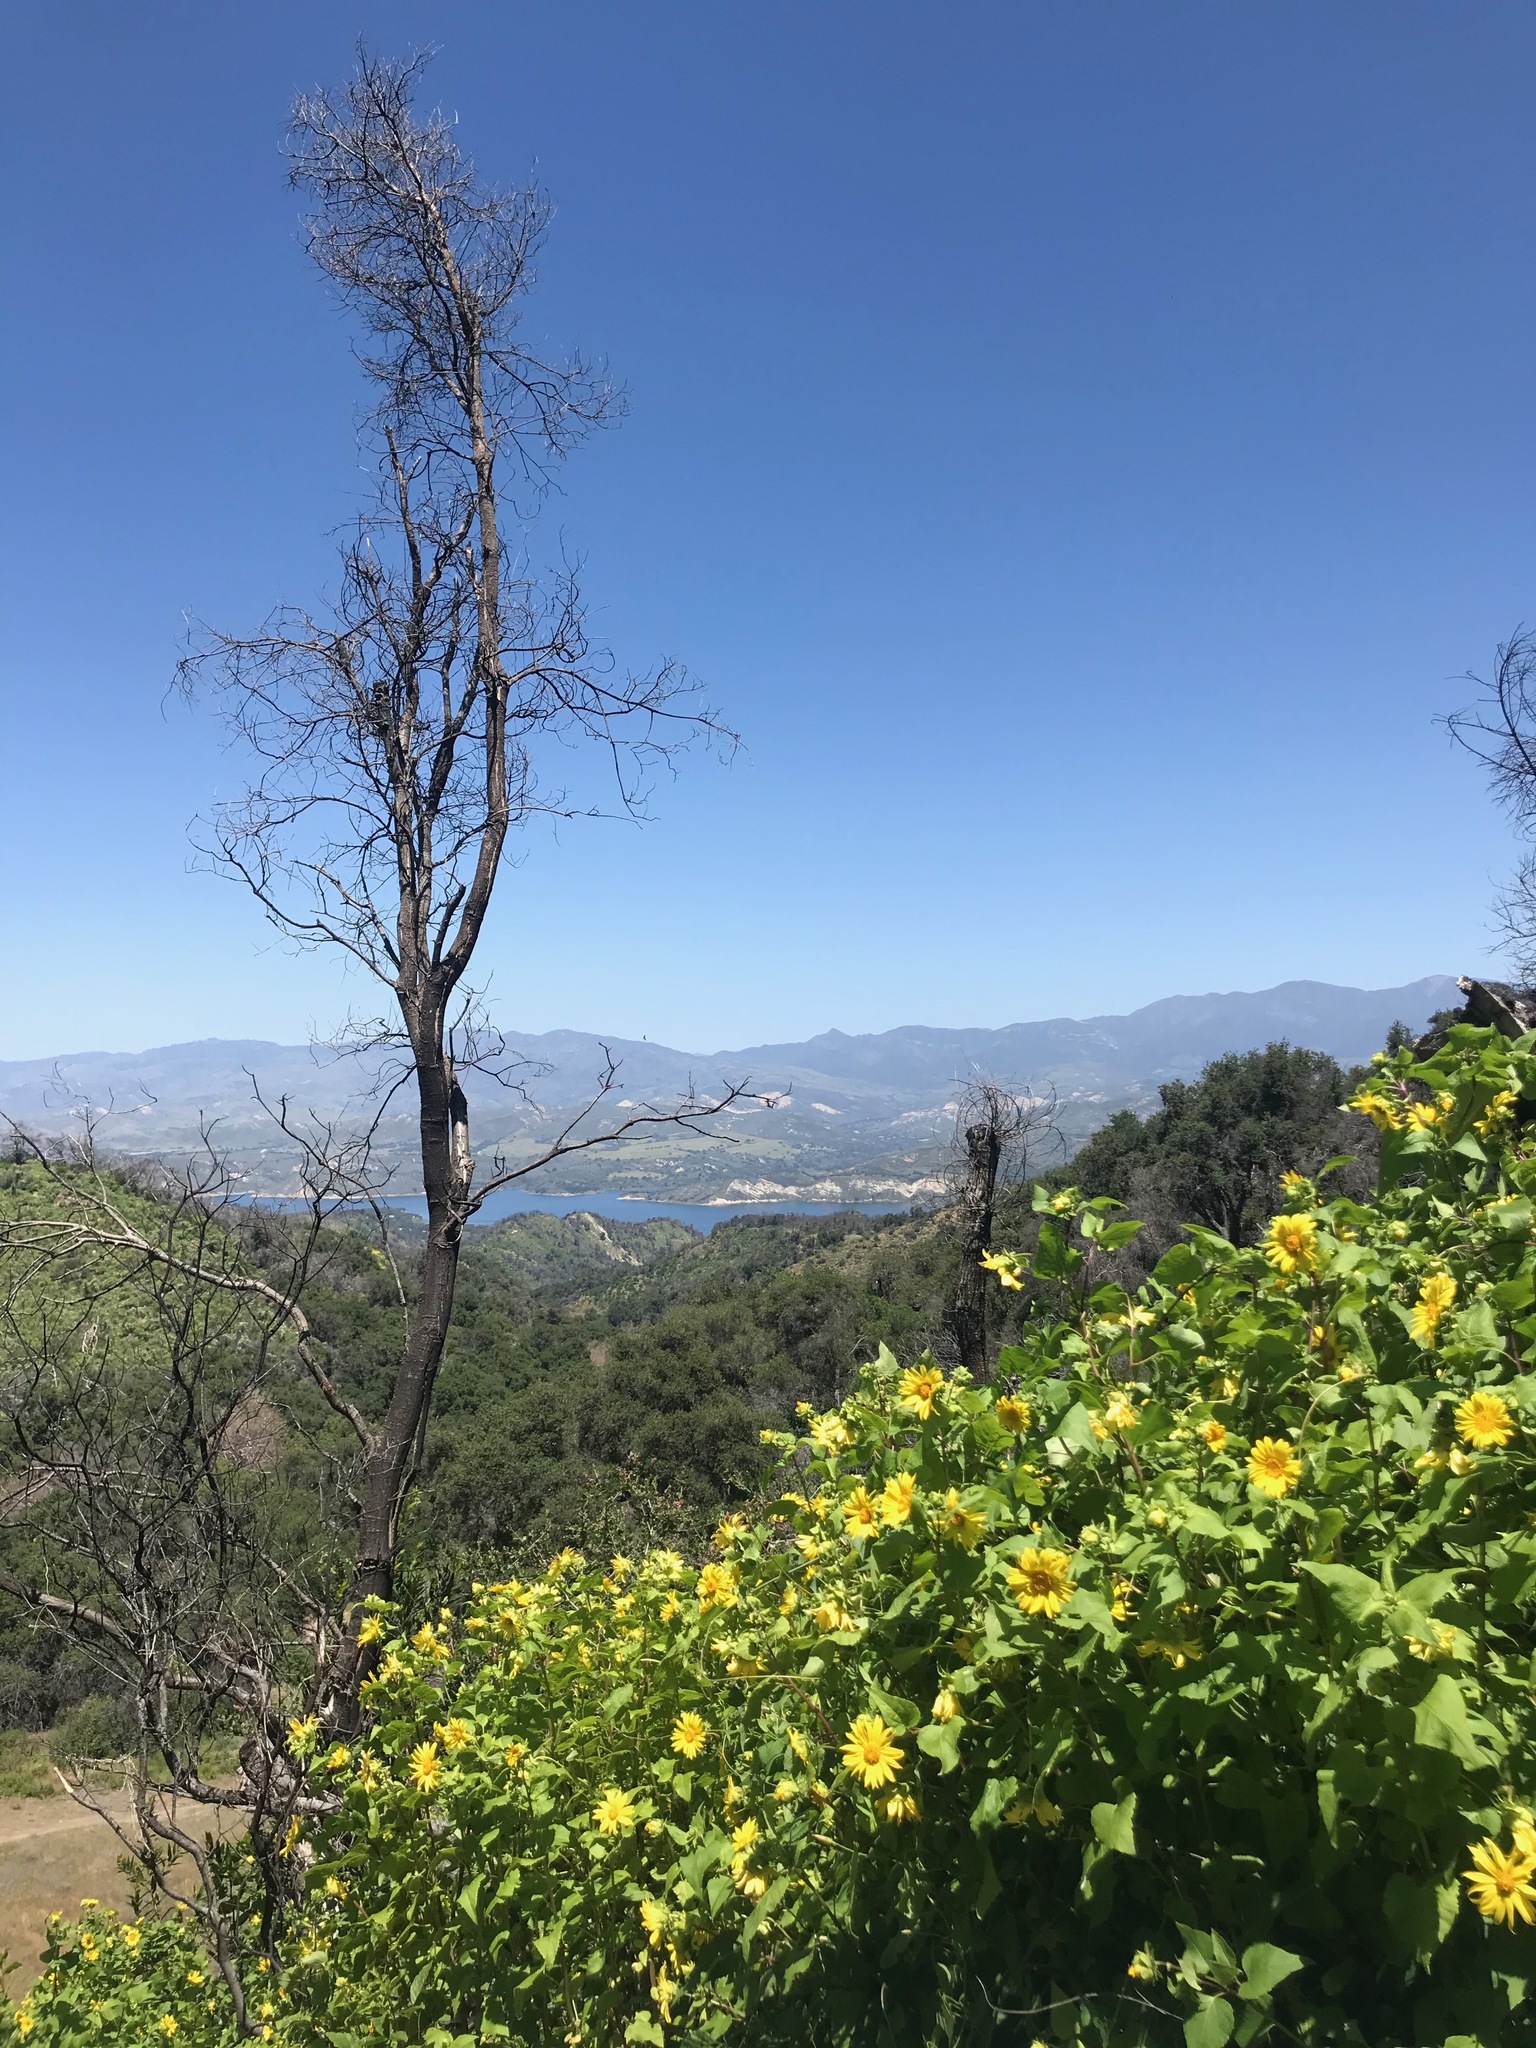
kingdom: Plantae
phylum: Tracheophyta
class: Magnoliopsida
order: Asterales
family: Asteraceae
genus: Venegasia
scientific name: Venegasia carpesioides
